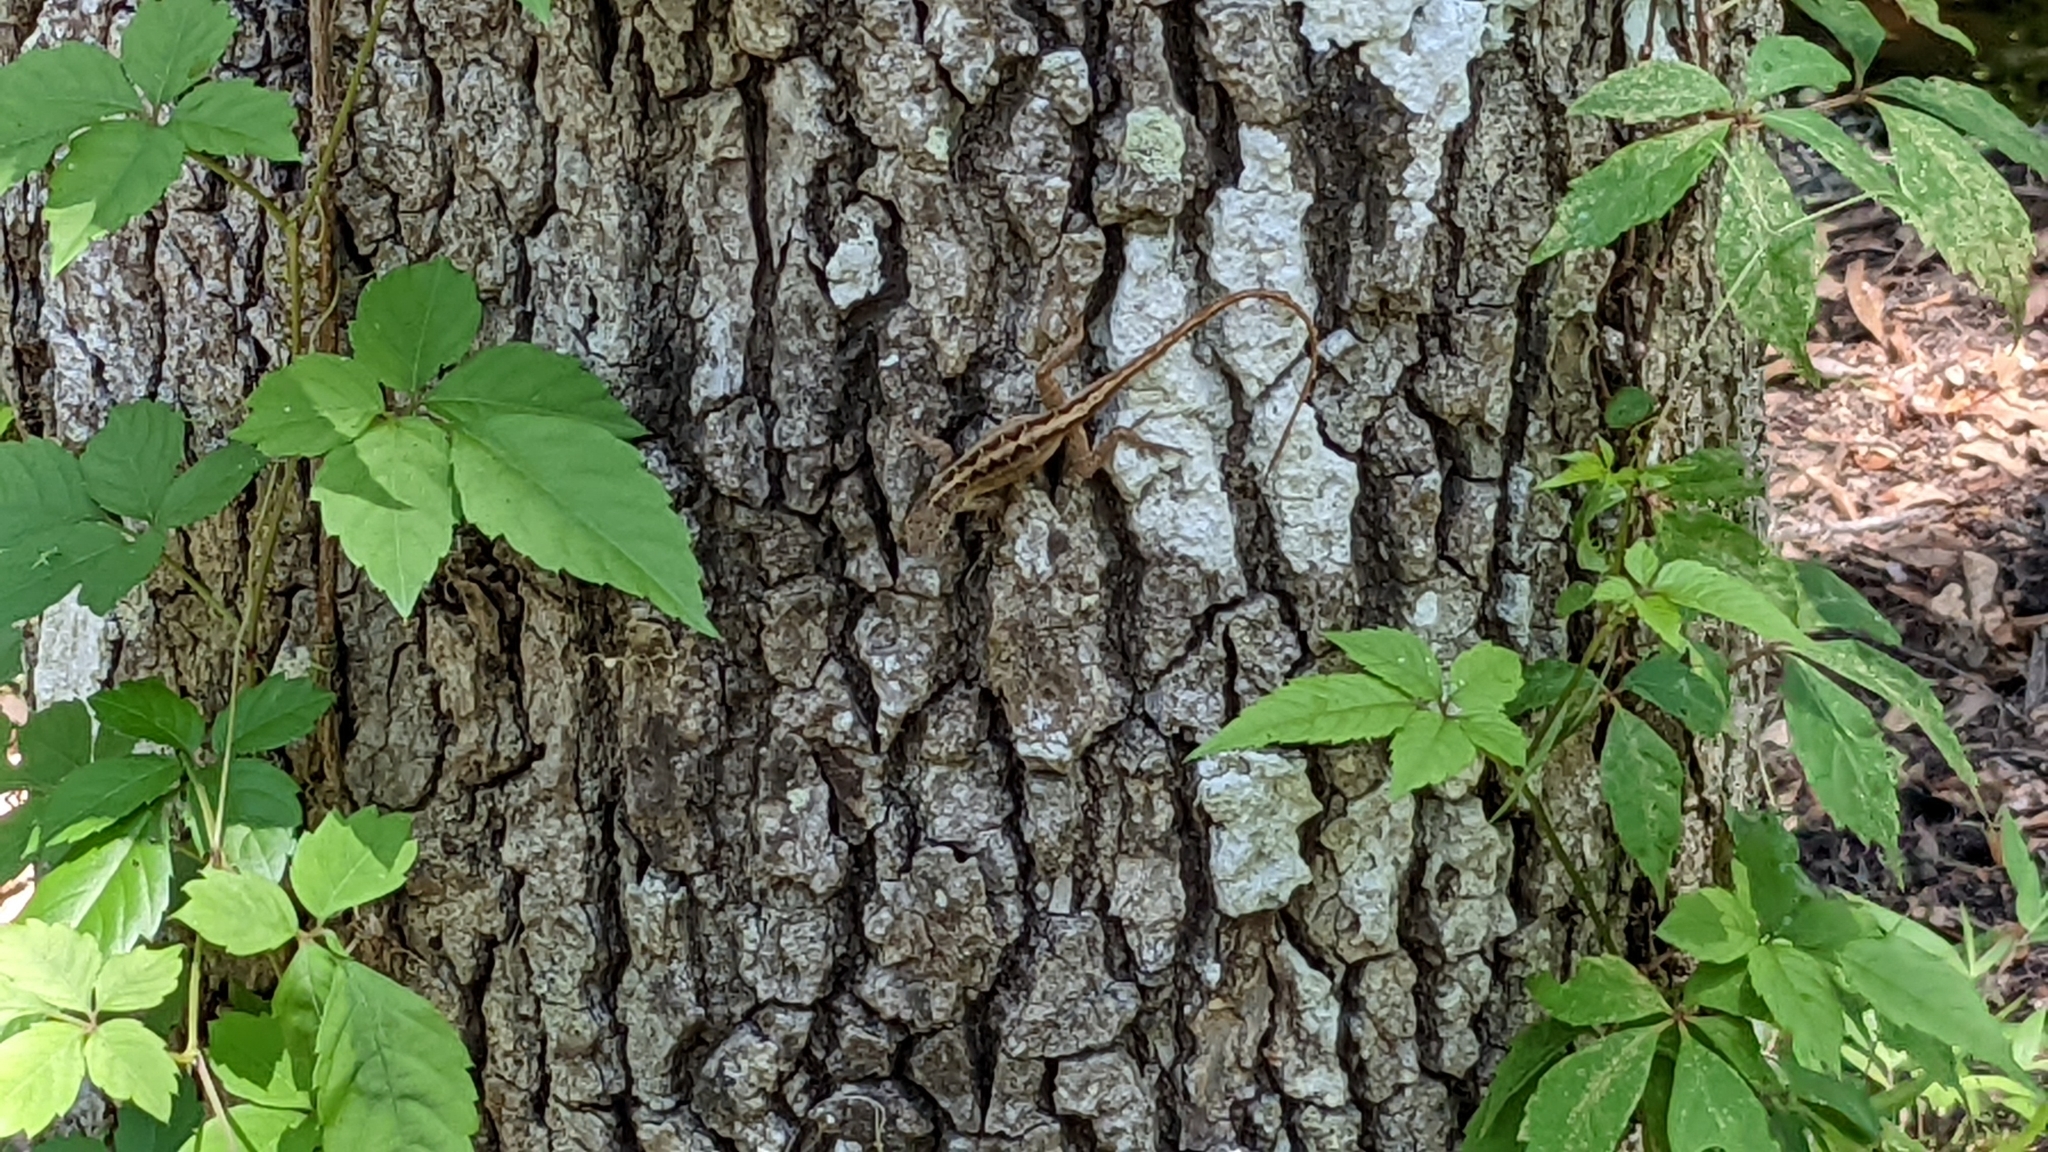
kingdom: Animalia
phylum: Chordata
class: Squamata
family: Dactyloidae
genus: Anolis
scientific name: Anolis sagrei
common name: Brown anole
